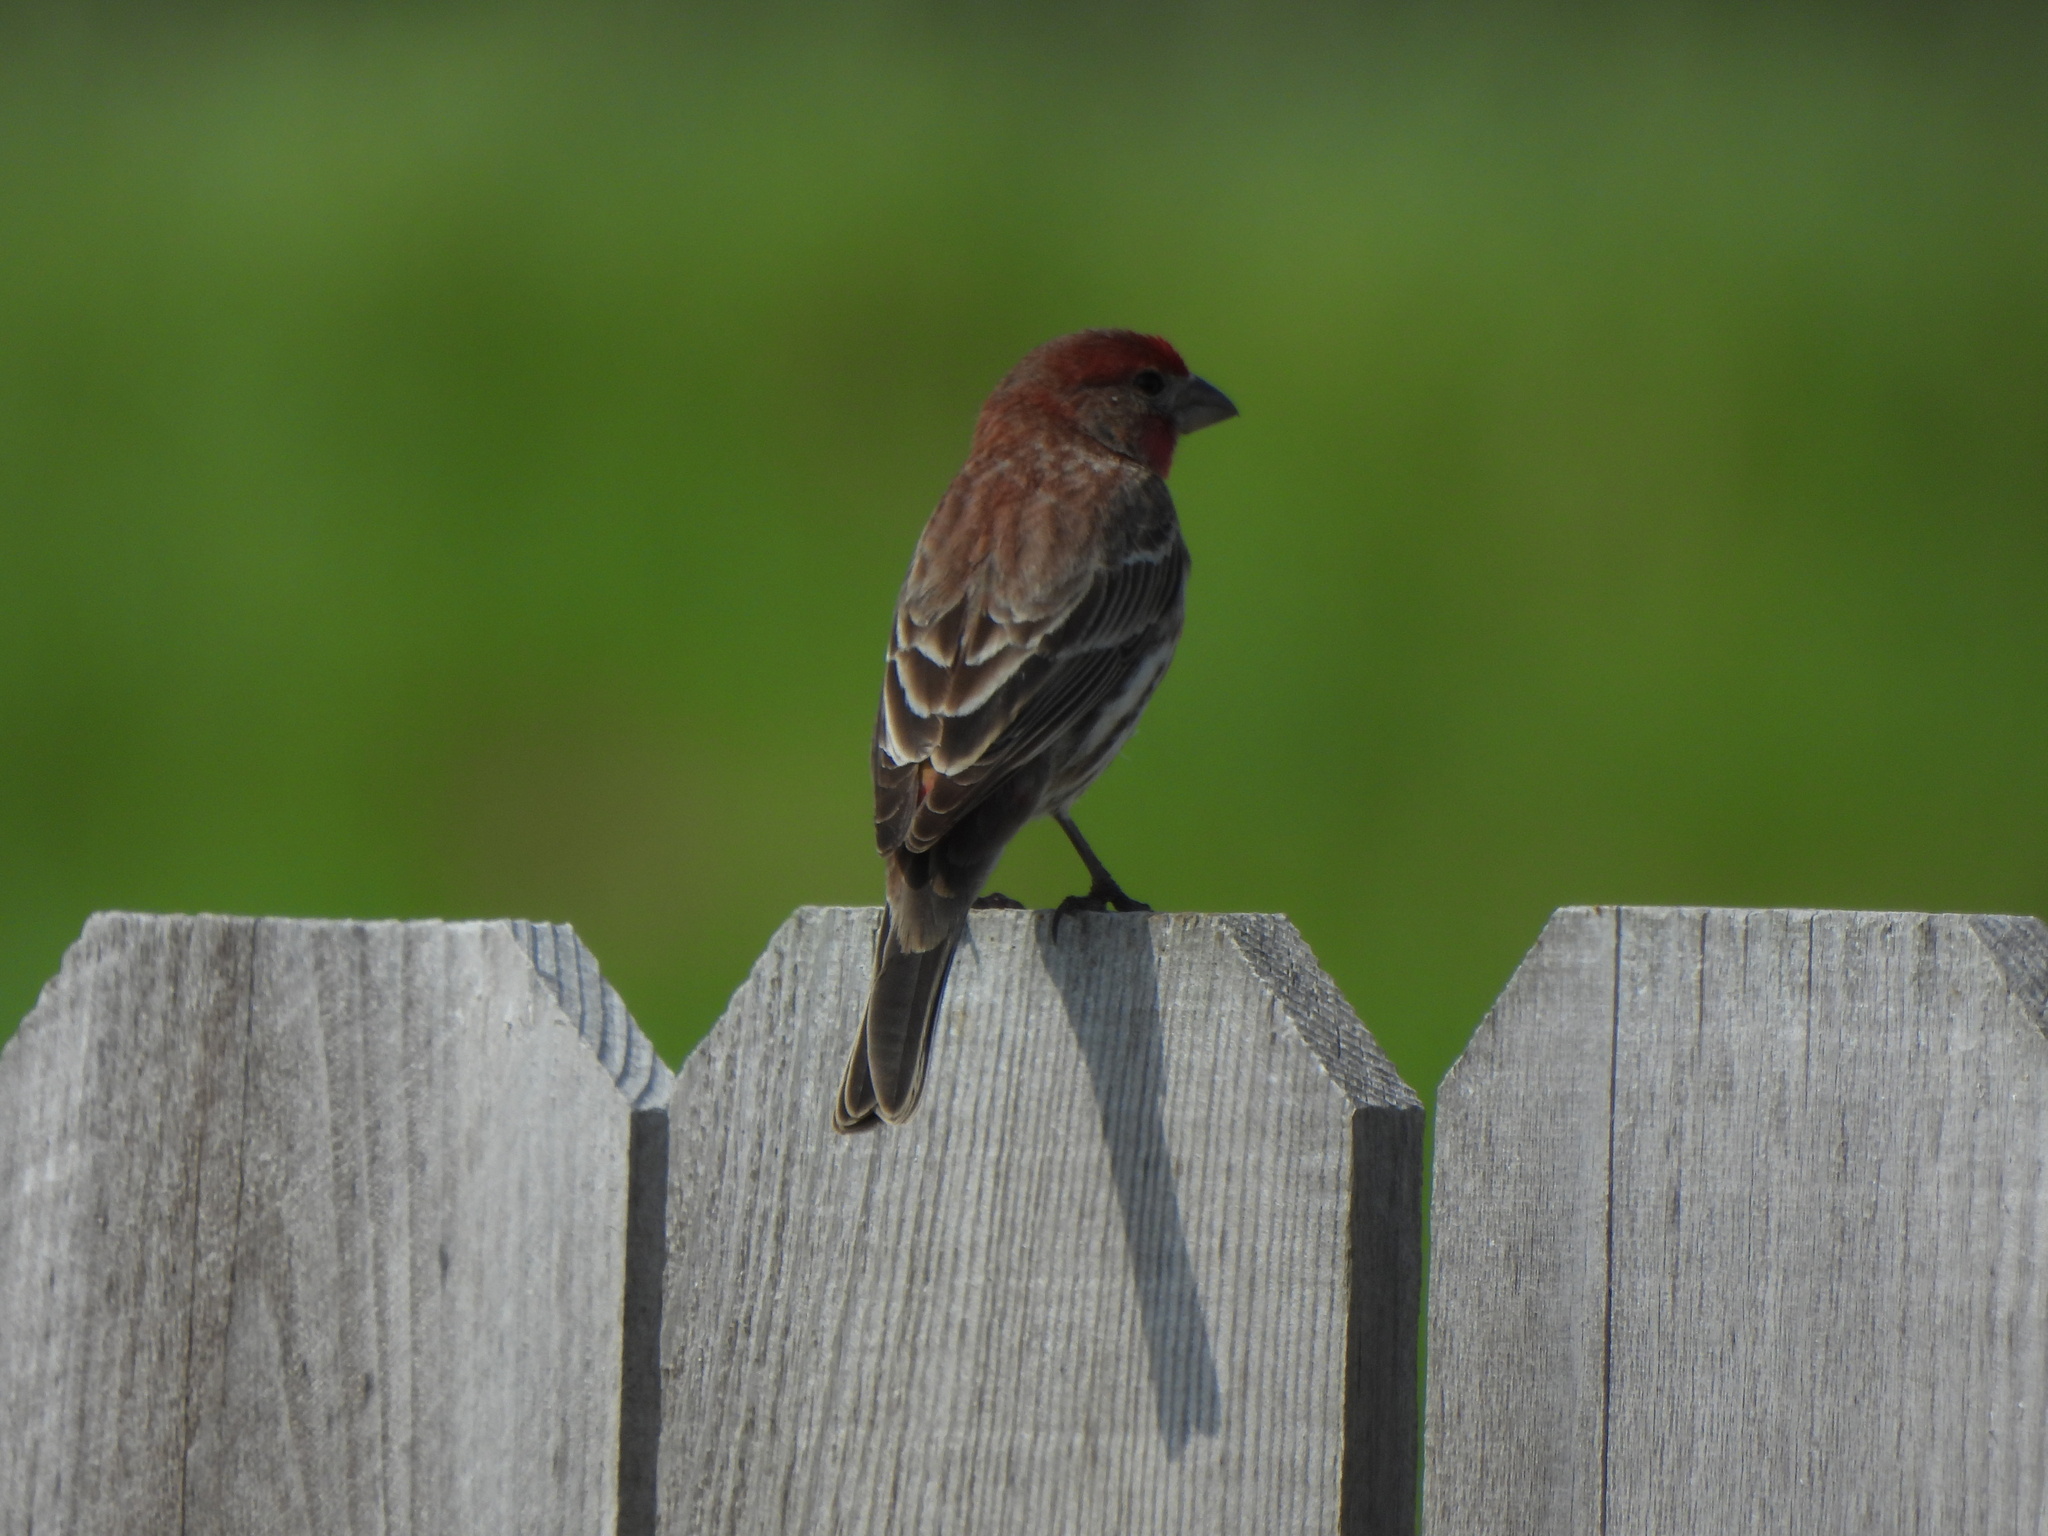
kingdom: Animalia
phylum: Chordata
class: Aves
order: Passeriformes
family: Fringillidae
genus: Haemorhous
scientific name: Haemorhous mexicanus
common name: House finch
